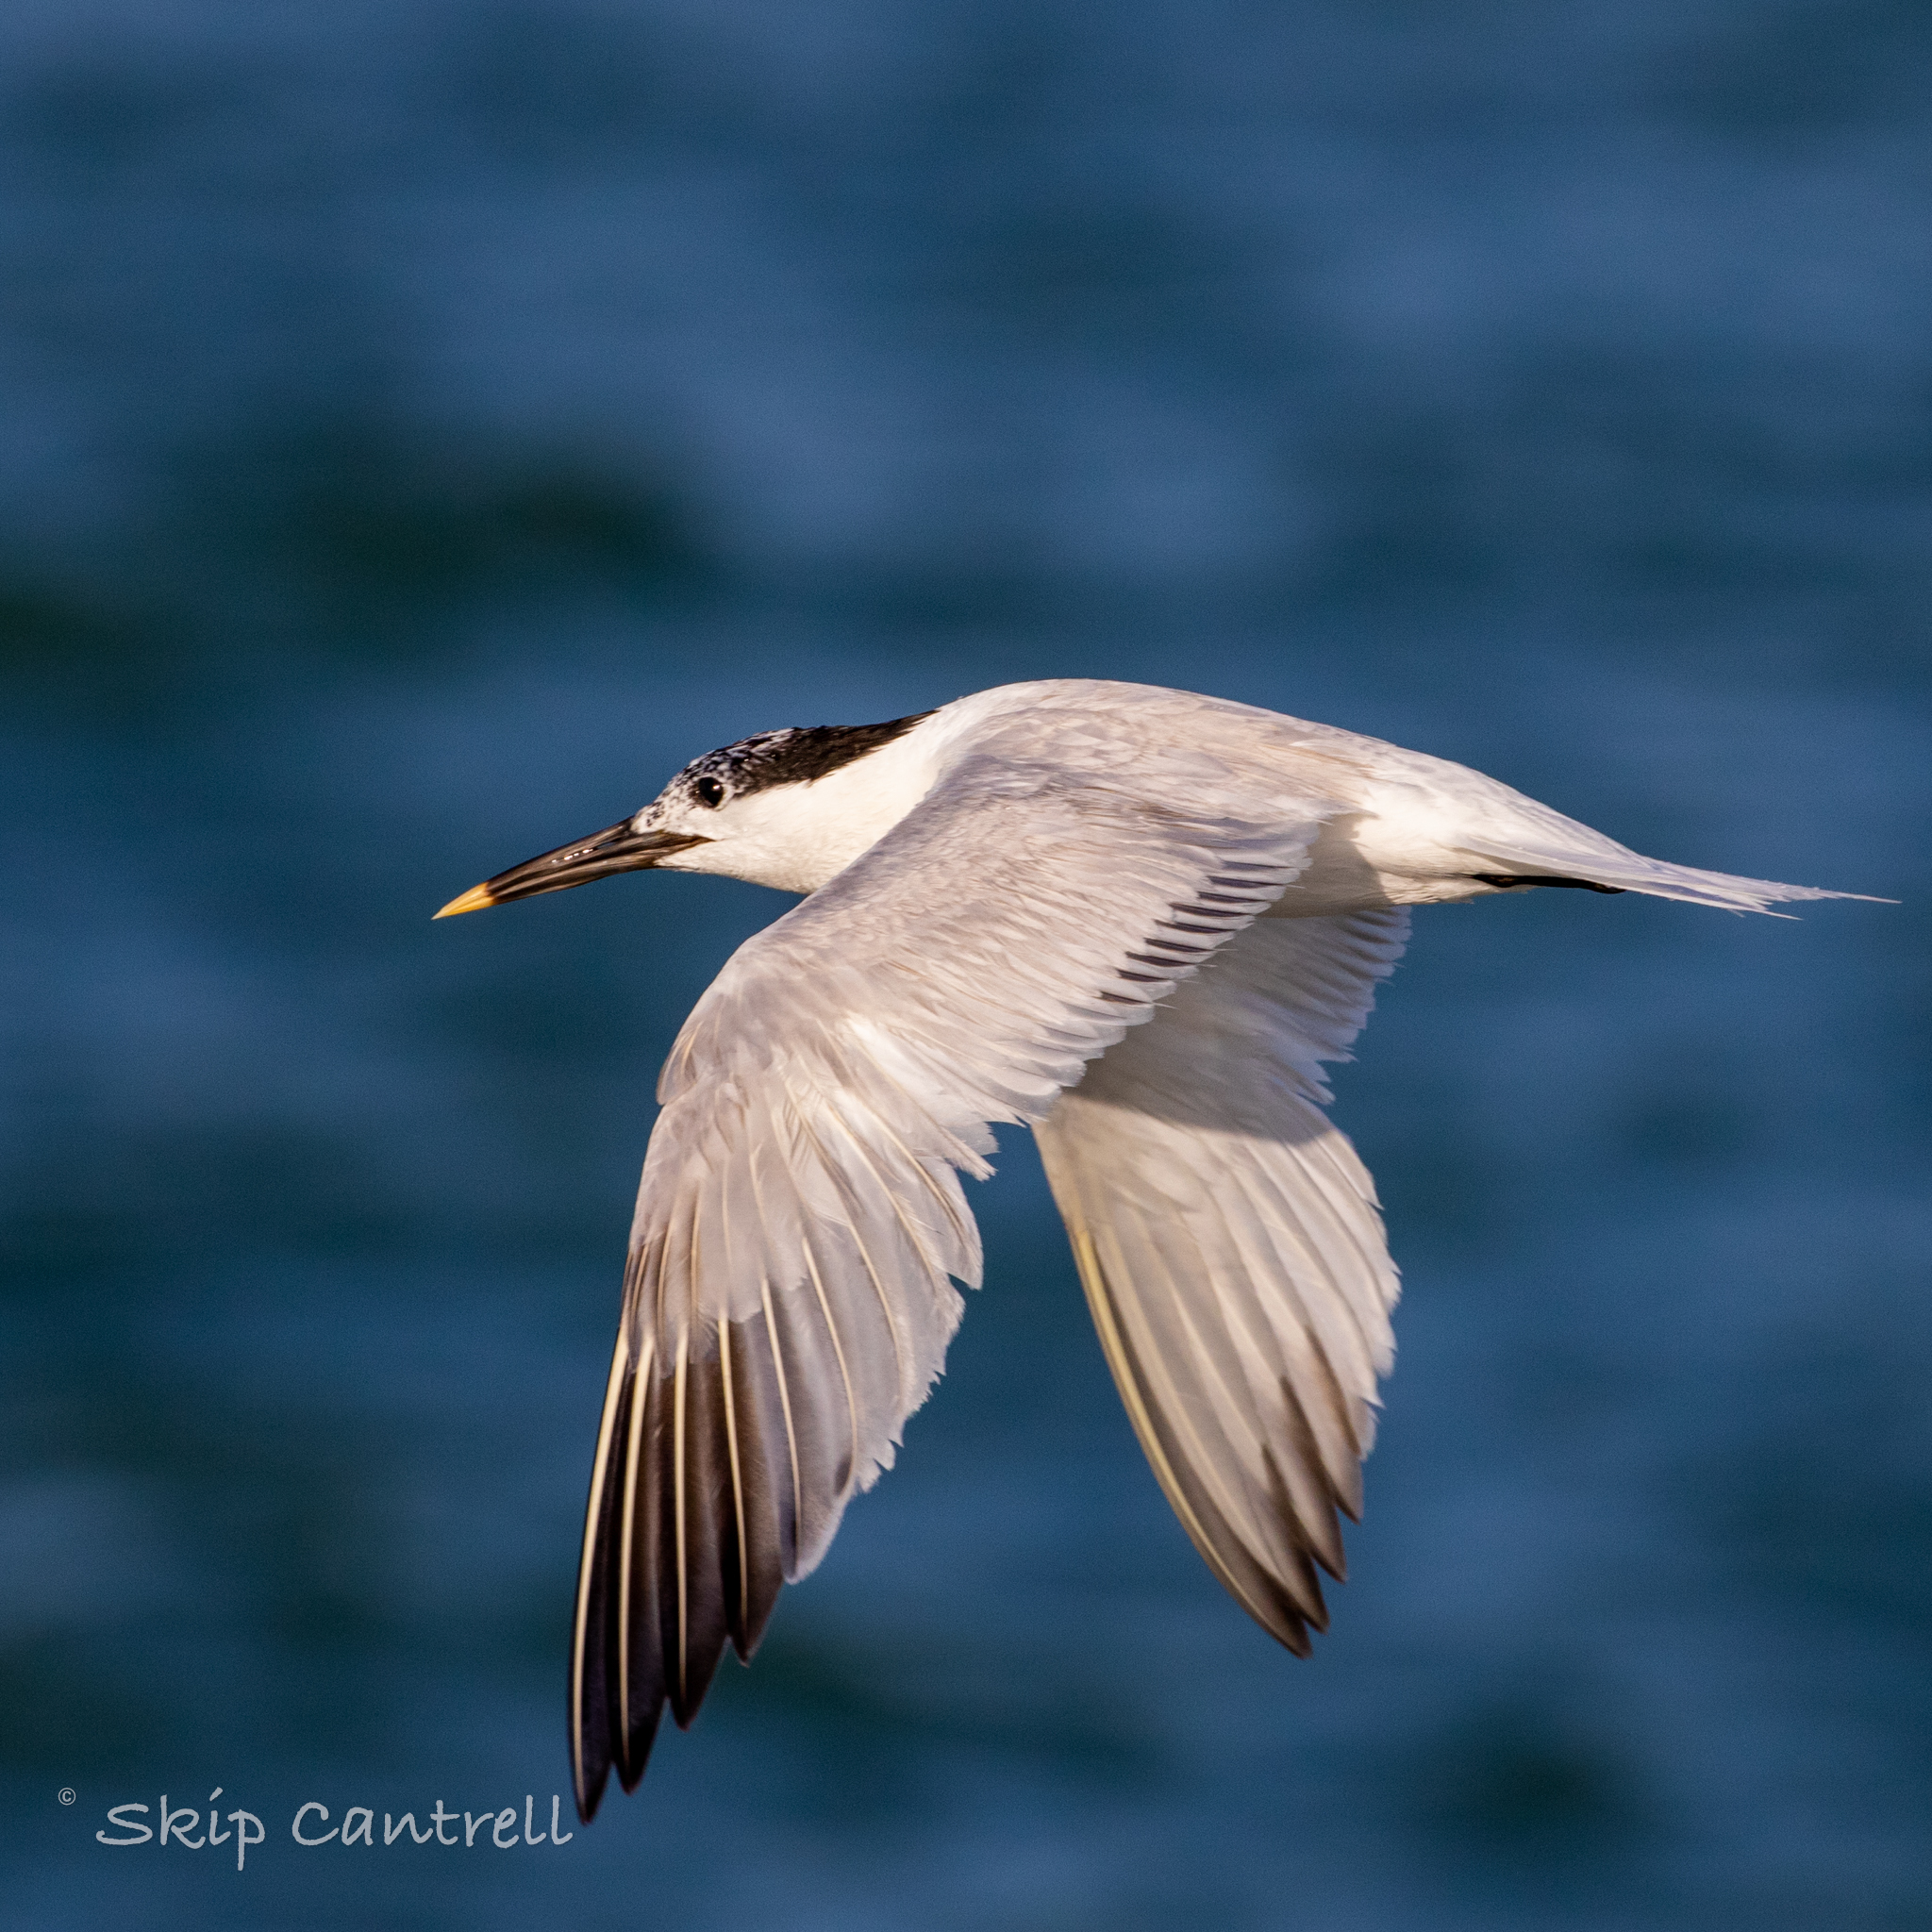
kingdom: Animalia
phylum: Chordata
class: Aves
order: Charadriiformes
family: Laridae
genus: Thalasseus
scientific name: Thalasseus sandvicensis
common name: Sandwich tern
